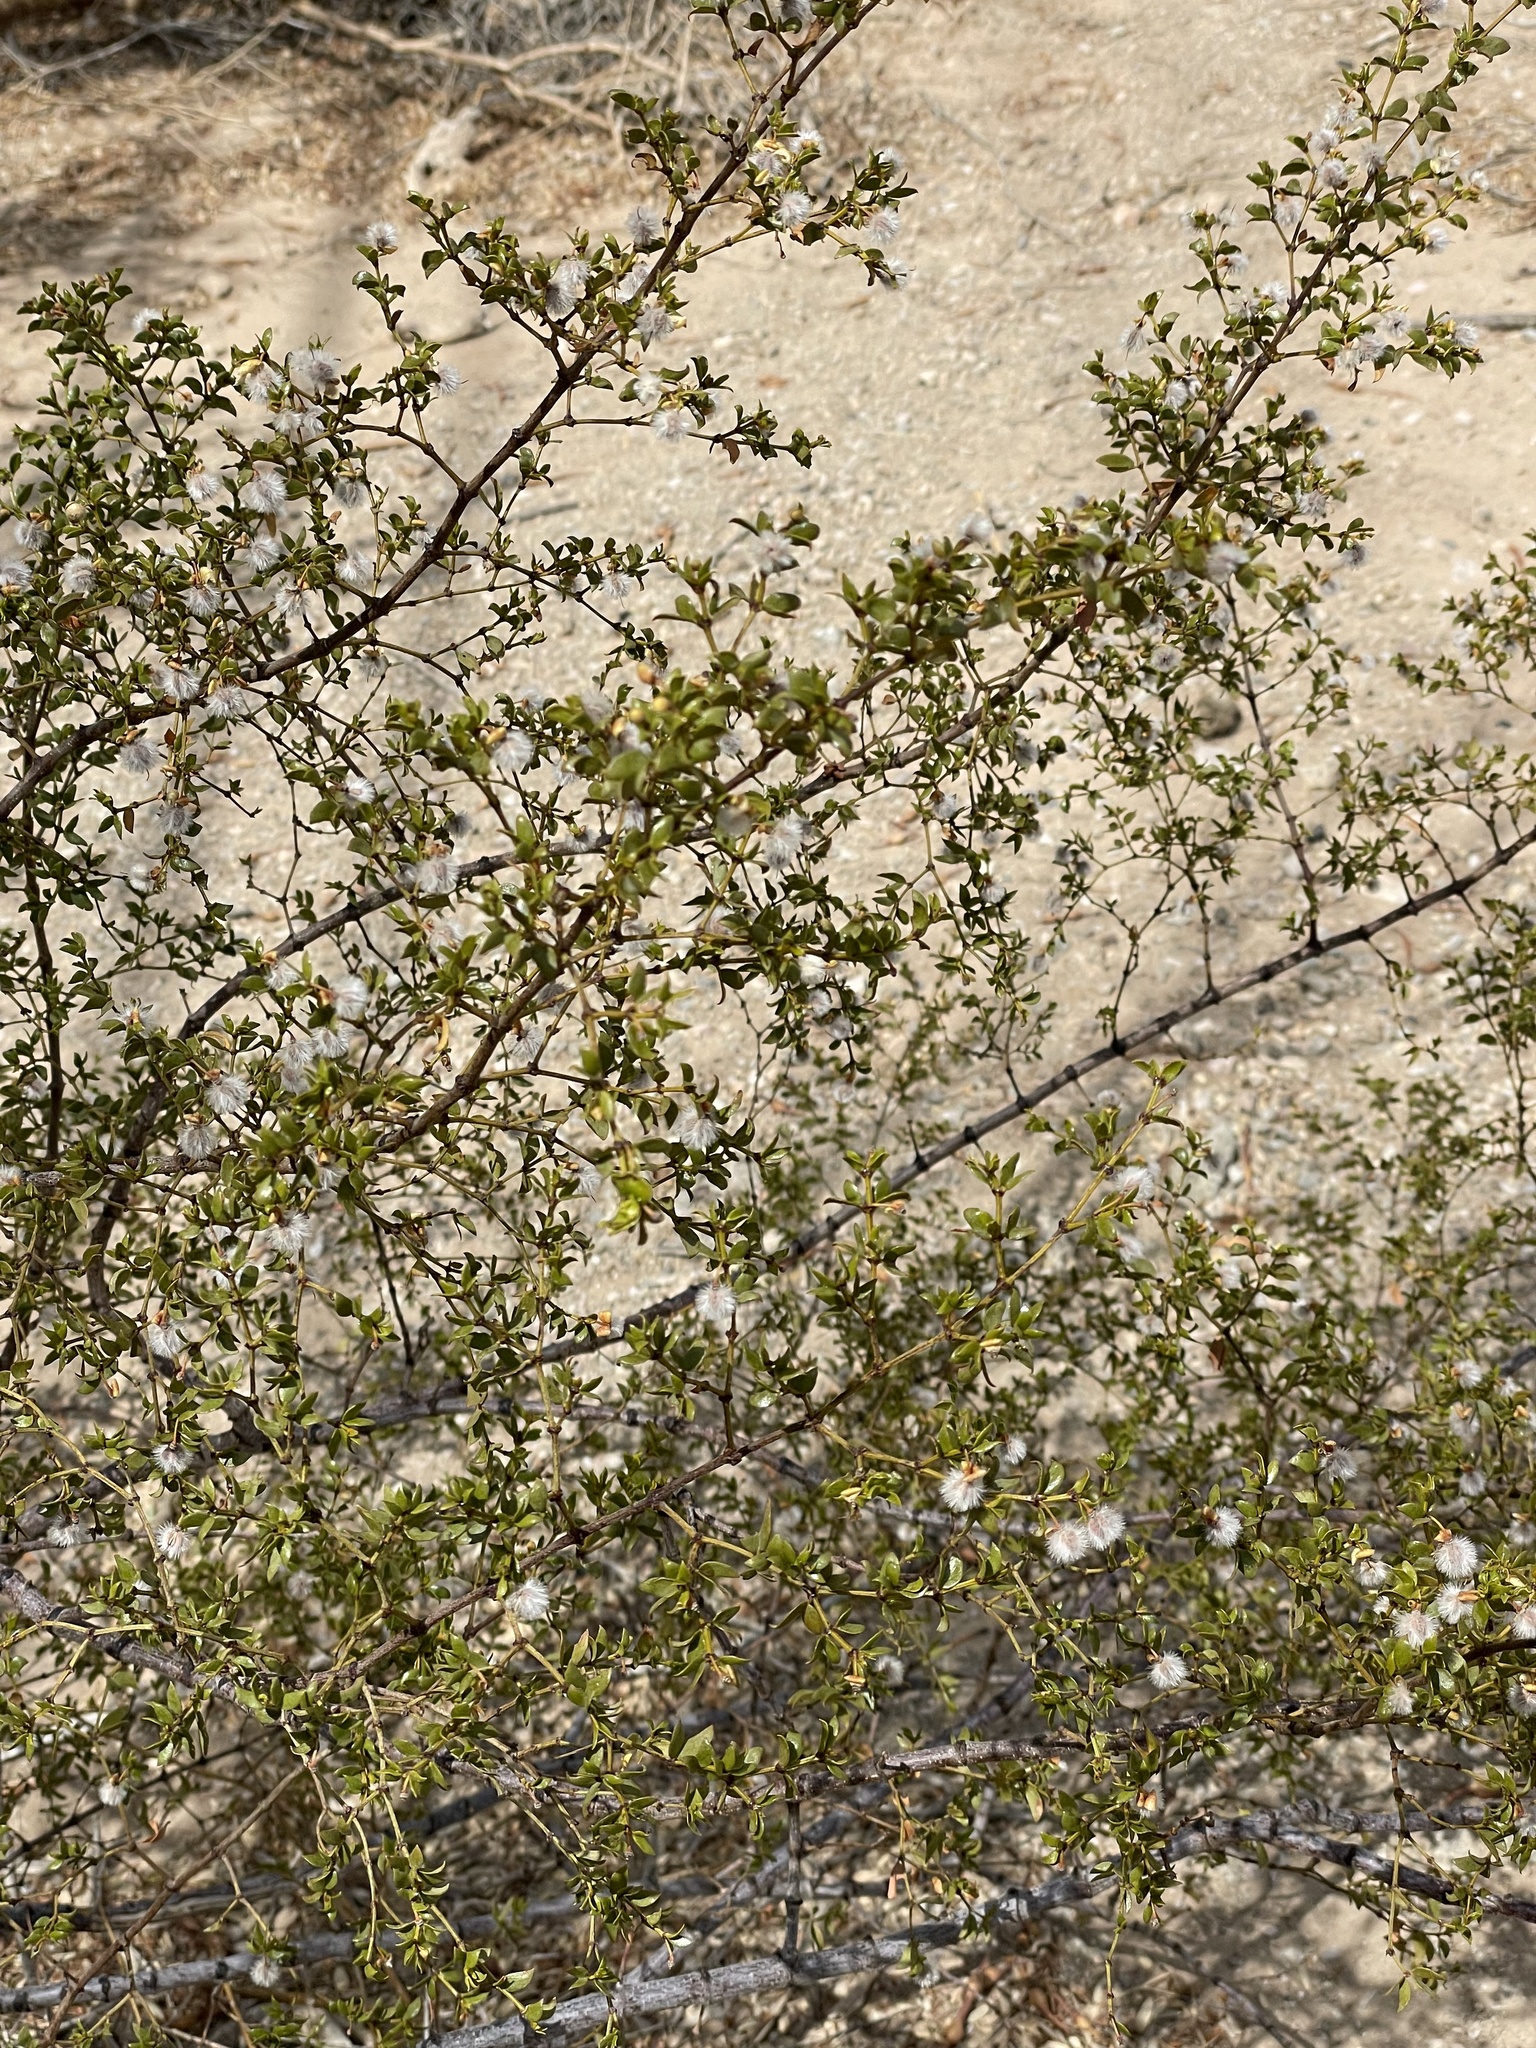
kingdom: Plantae
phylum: Tracheophyta
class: Magnoliopsida
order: Zygophyllales
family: Zygophyllaceae
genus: Larrea
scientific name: Larrea tridentata
